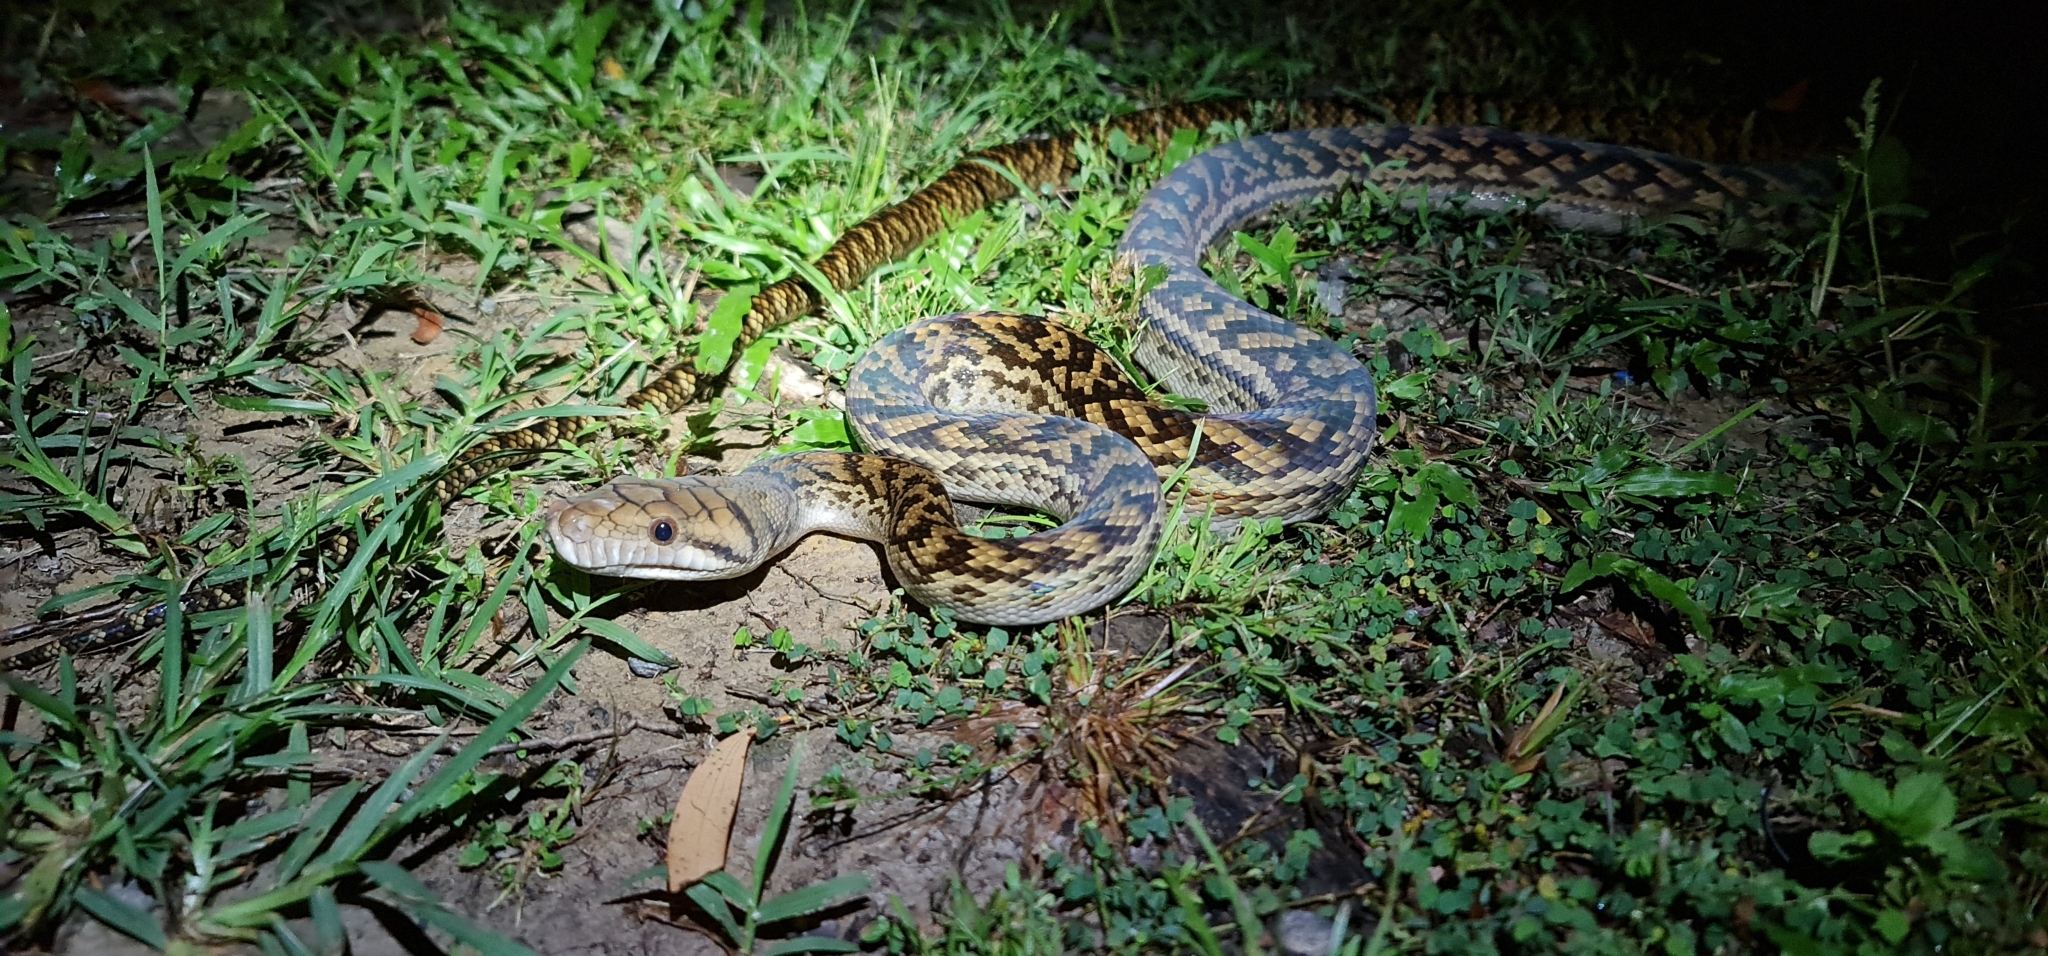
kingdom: Animalia
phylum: Chordata
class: Squamata
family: Pythonidae
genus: Simalia
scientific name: Simalia kinghorni
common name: Scrub python
